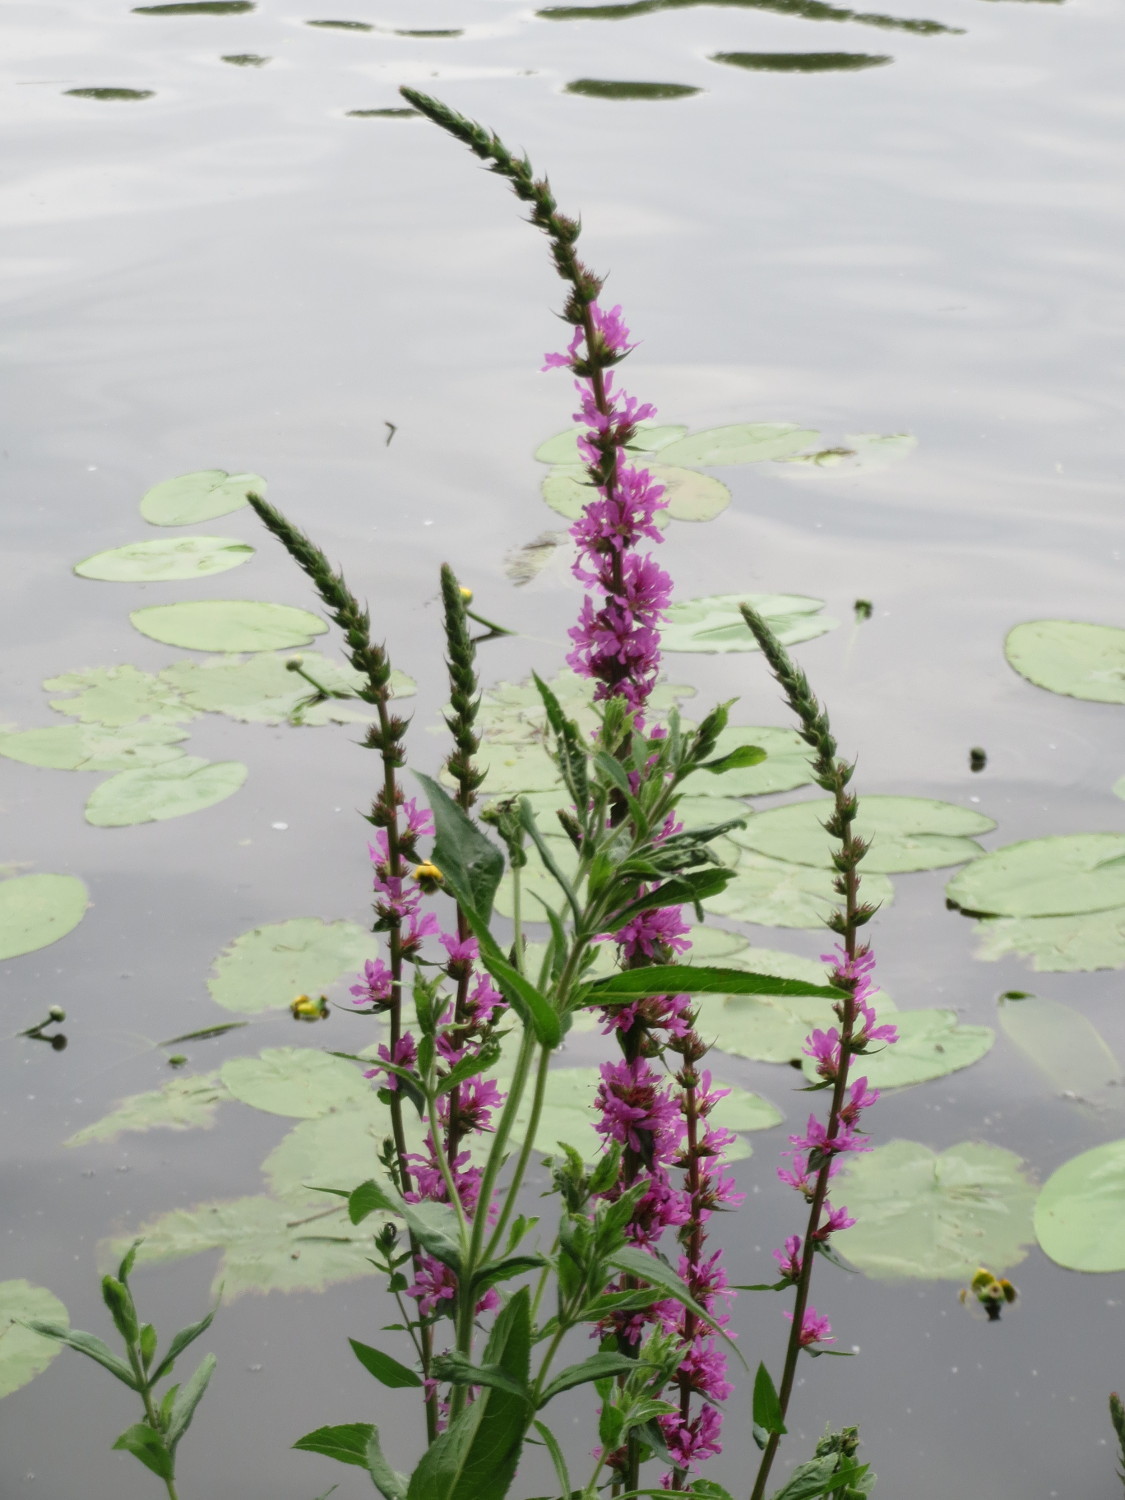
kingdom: Plantae
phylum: Tracheophyta
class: Magnoliopsida
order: Myrtales
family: Lythraceae
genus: Lythrum
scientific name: Lythrum salicaria
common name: Purple loosestrife
